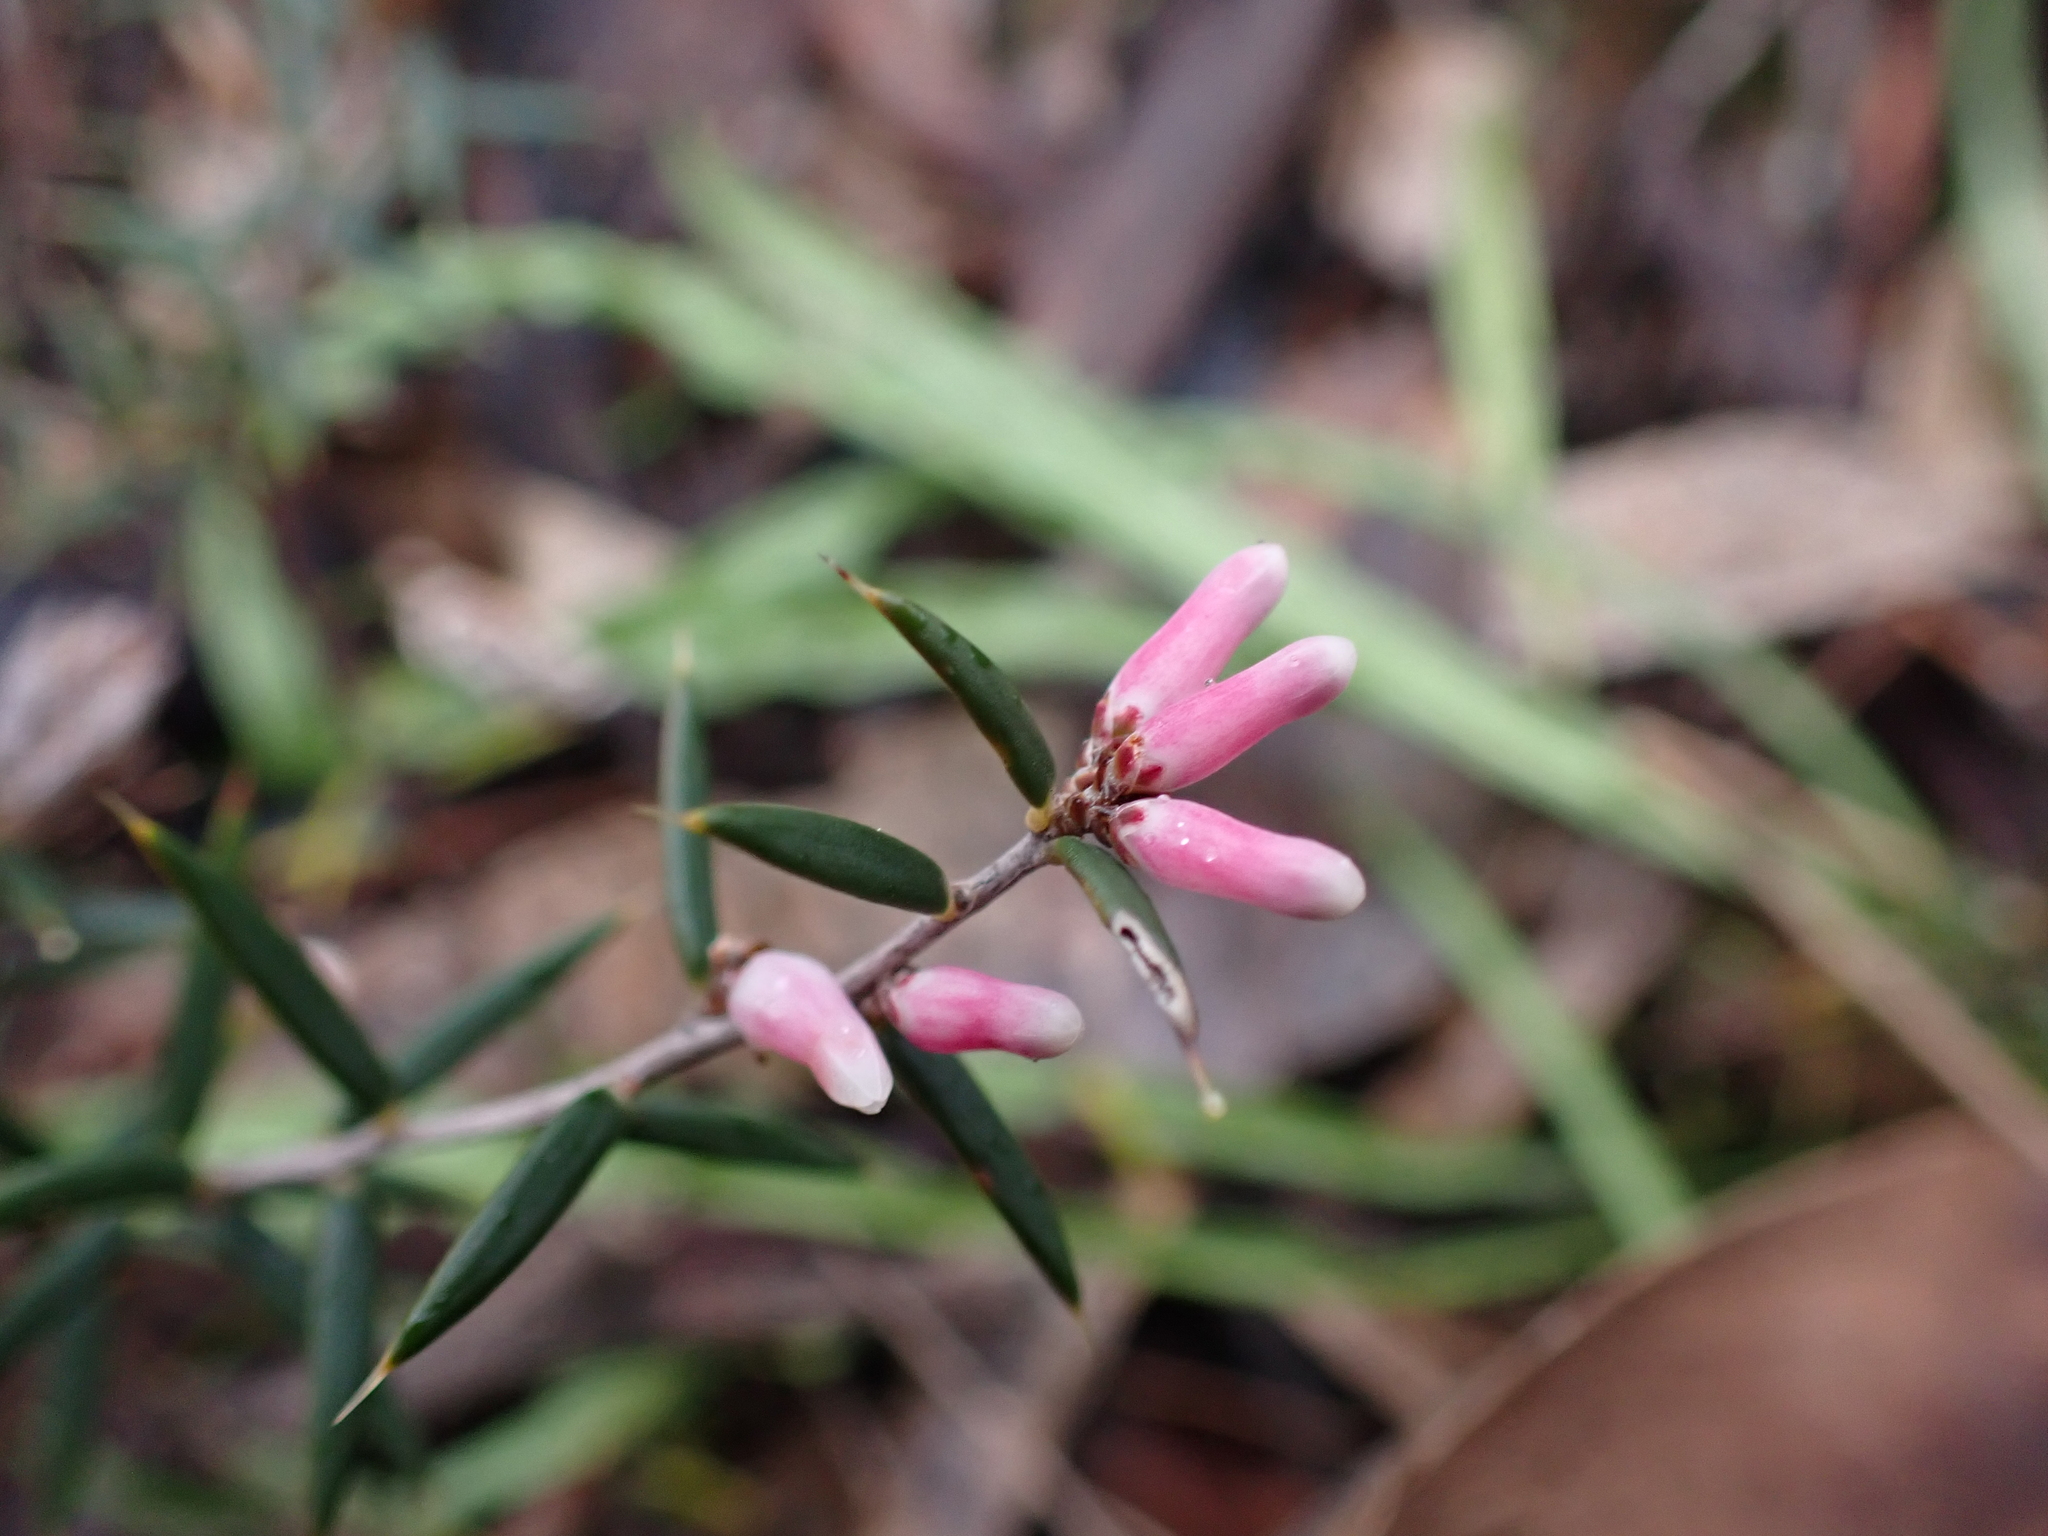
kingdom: Plantae
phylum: Tracheophyta
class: Magnoliopsida
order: Ericales
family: Ericaceae
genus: Lissanthe
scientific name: Lissanthe strigosa
